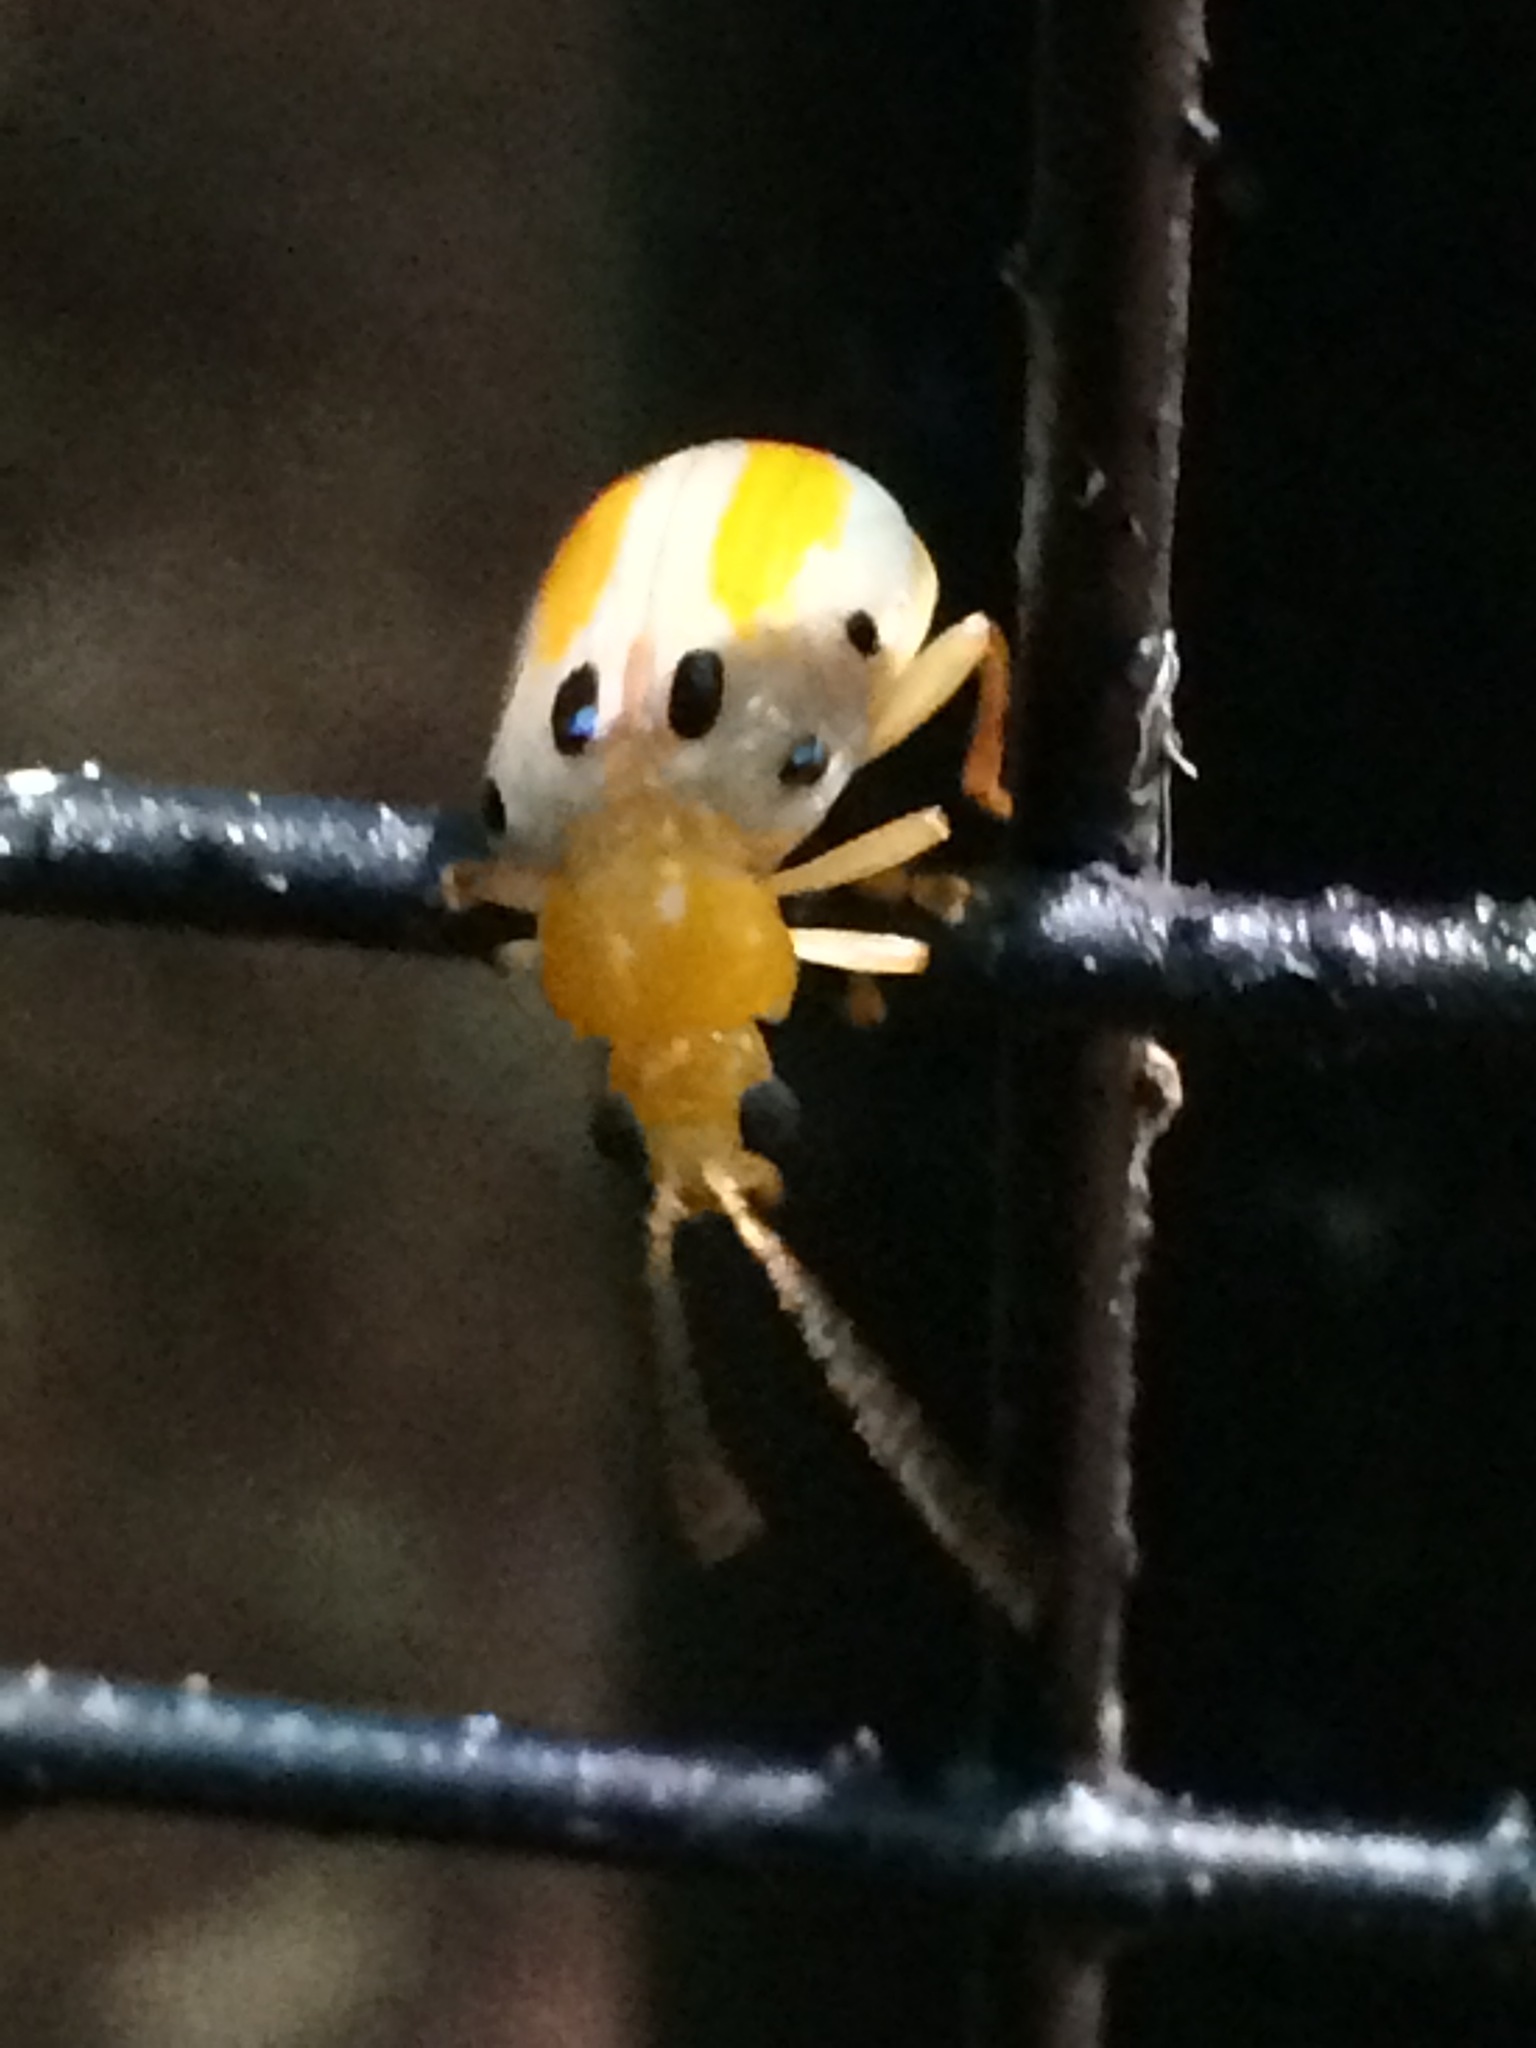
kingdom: Animalia
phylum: Arthropoda
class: Insecta
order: Coleoptera
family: Chrysomelidae
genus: Exora
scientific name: Exora obsoleta
